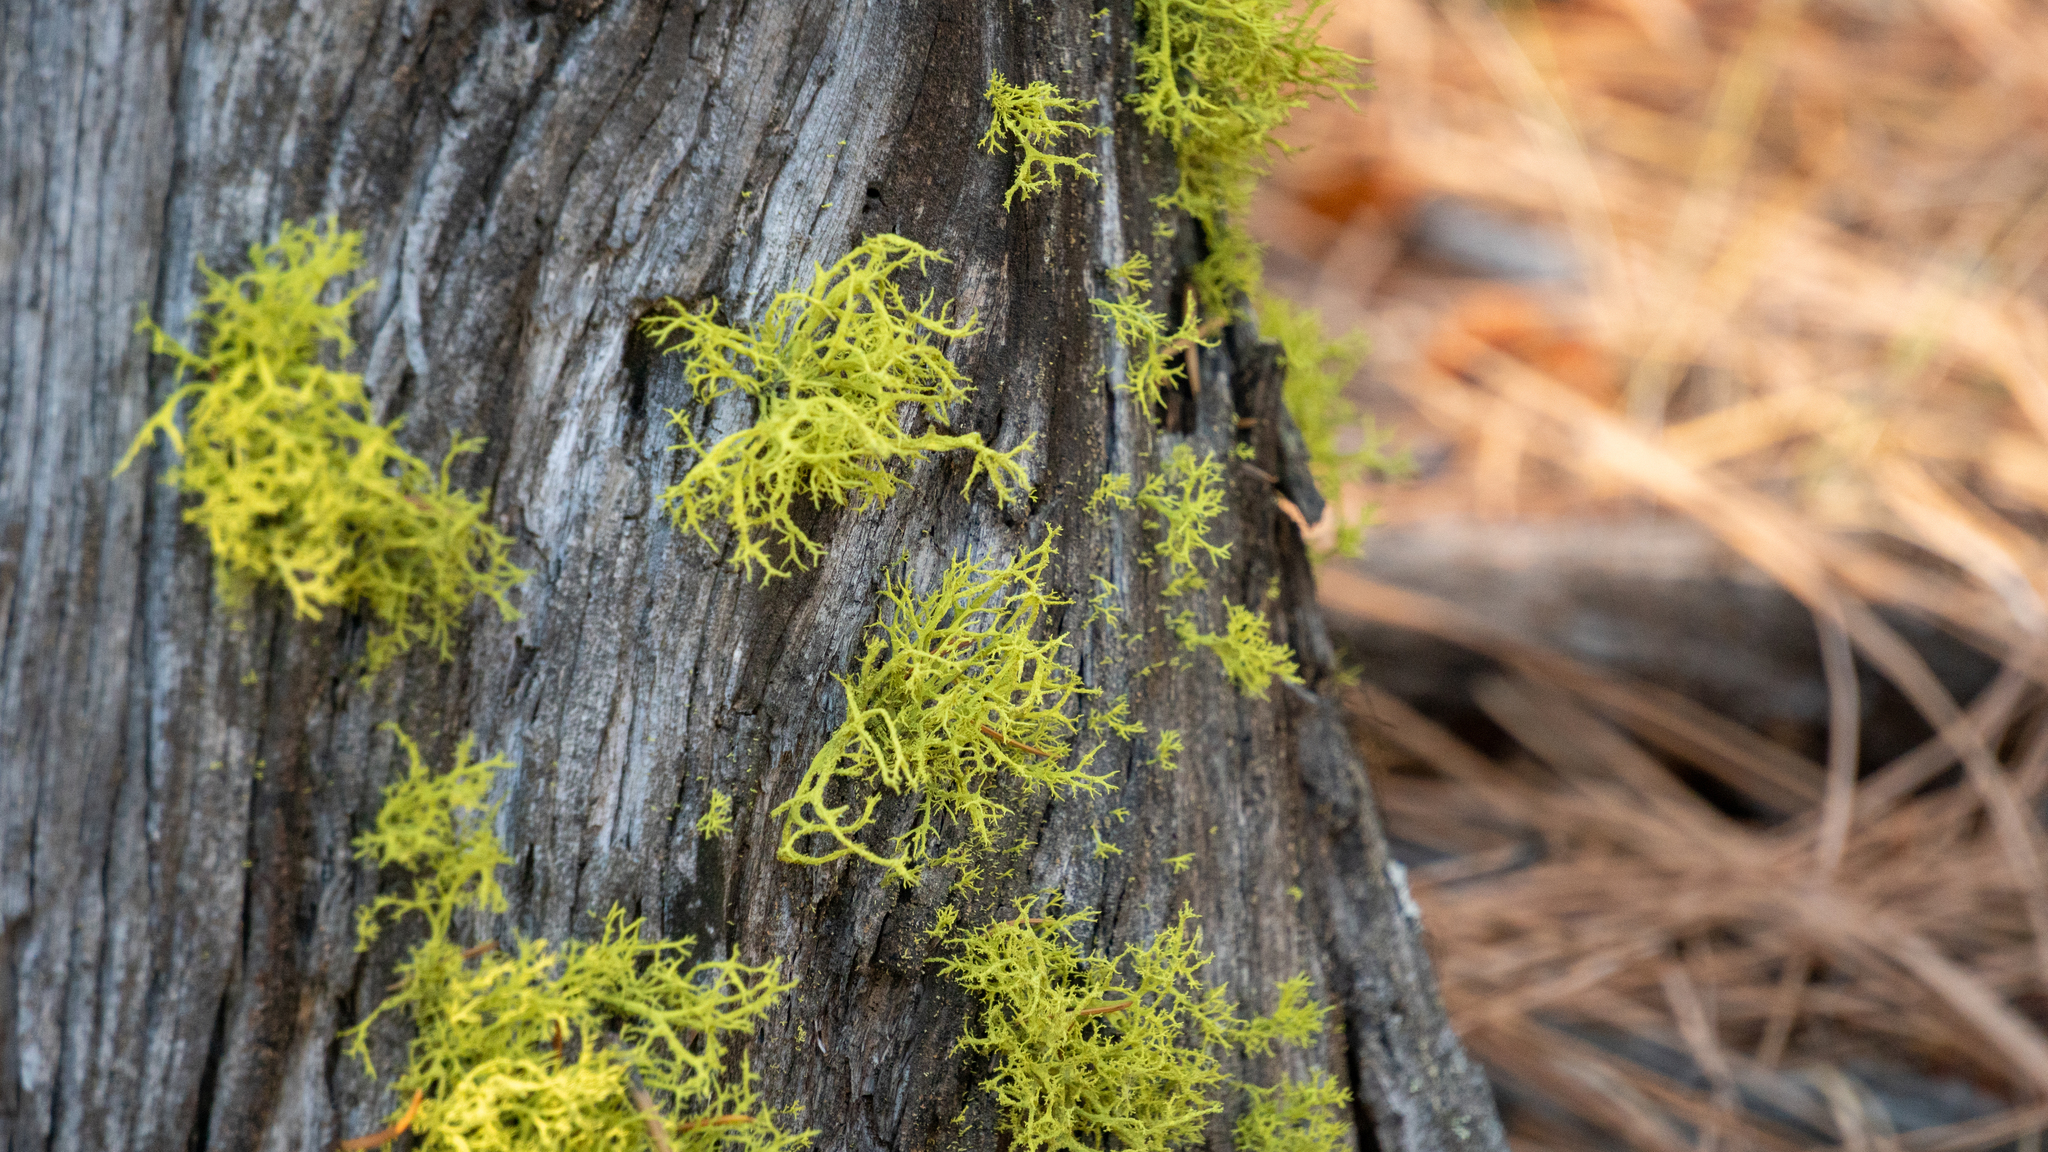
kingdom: Fungi
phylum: Ascomycota
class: Lecanoromycetes
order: Lecanorales
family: Parmeliaceae
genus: Letharia
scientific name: Letharia vulpina
